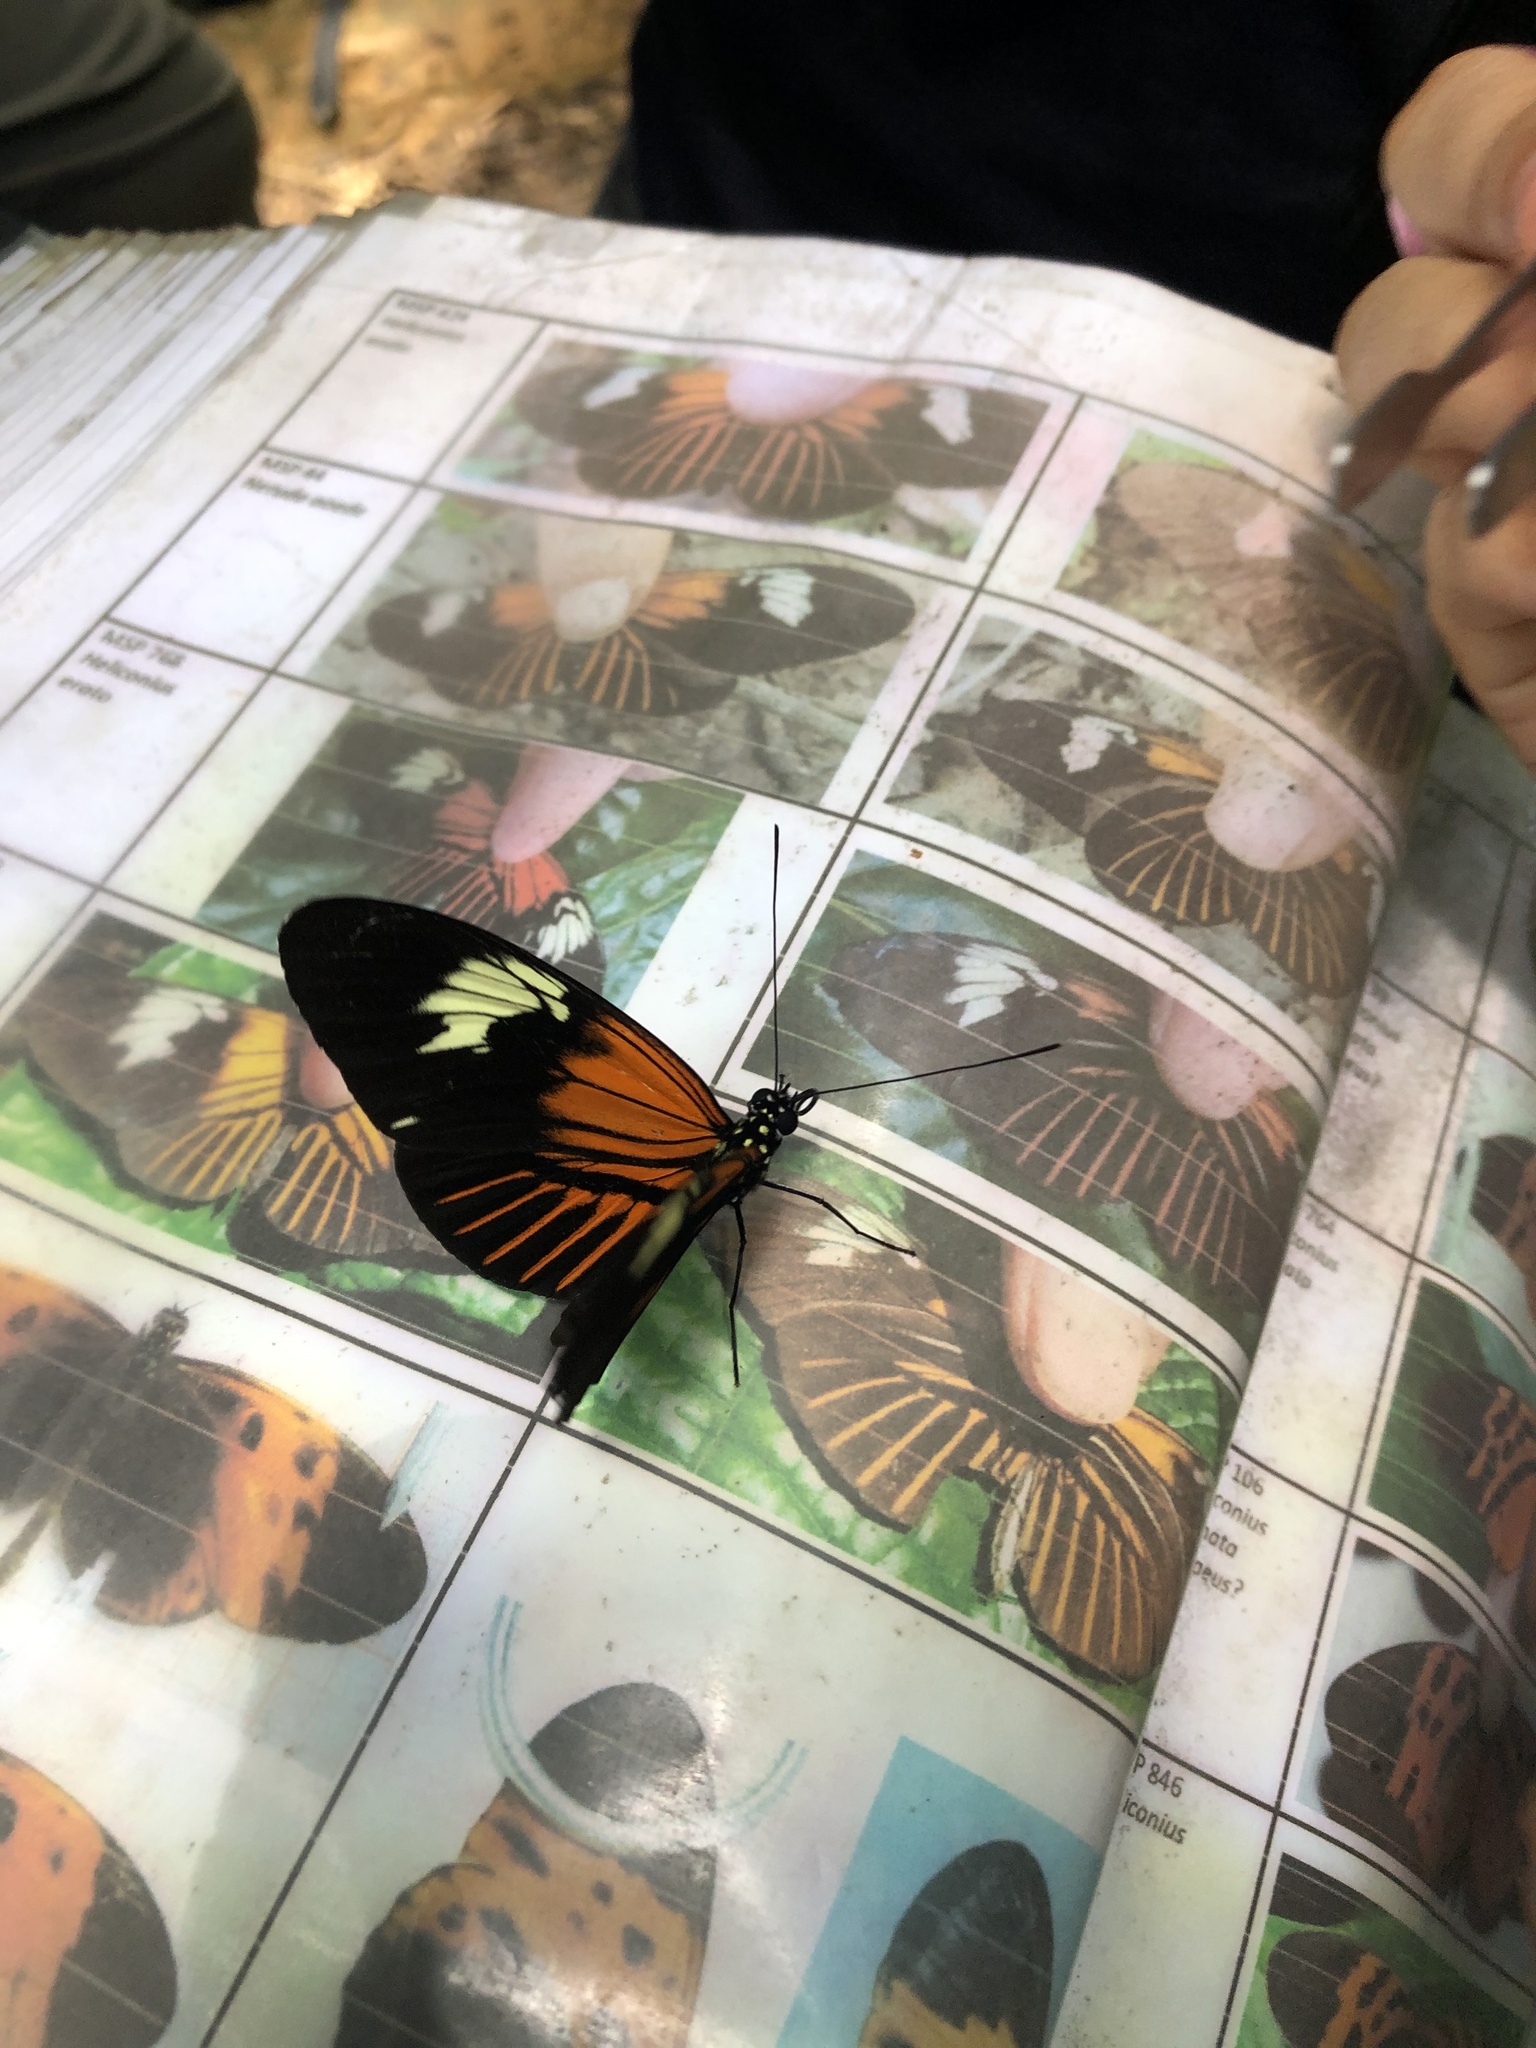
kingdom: Animalia
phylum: Arthropoda
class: Insecta
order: Lepidoptera
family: Nymphalidae
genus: Heliconius
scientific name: Heliconius elevatus
